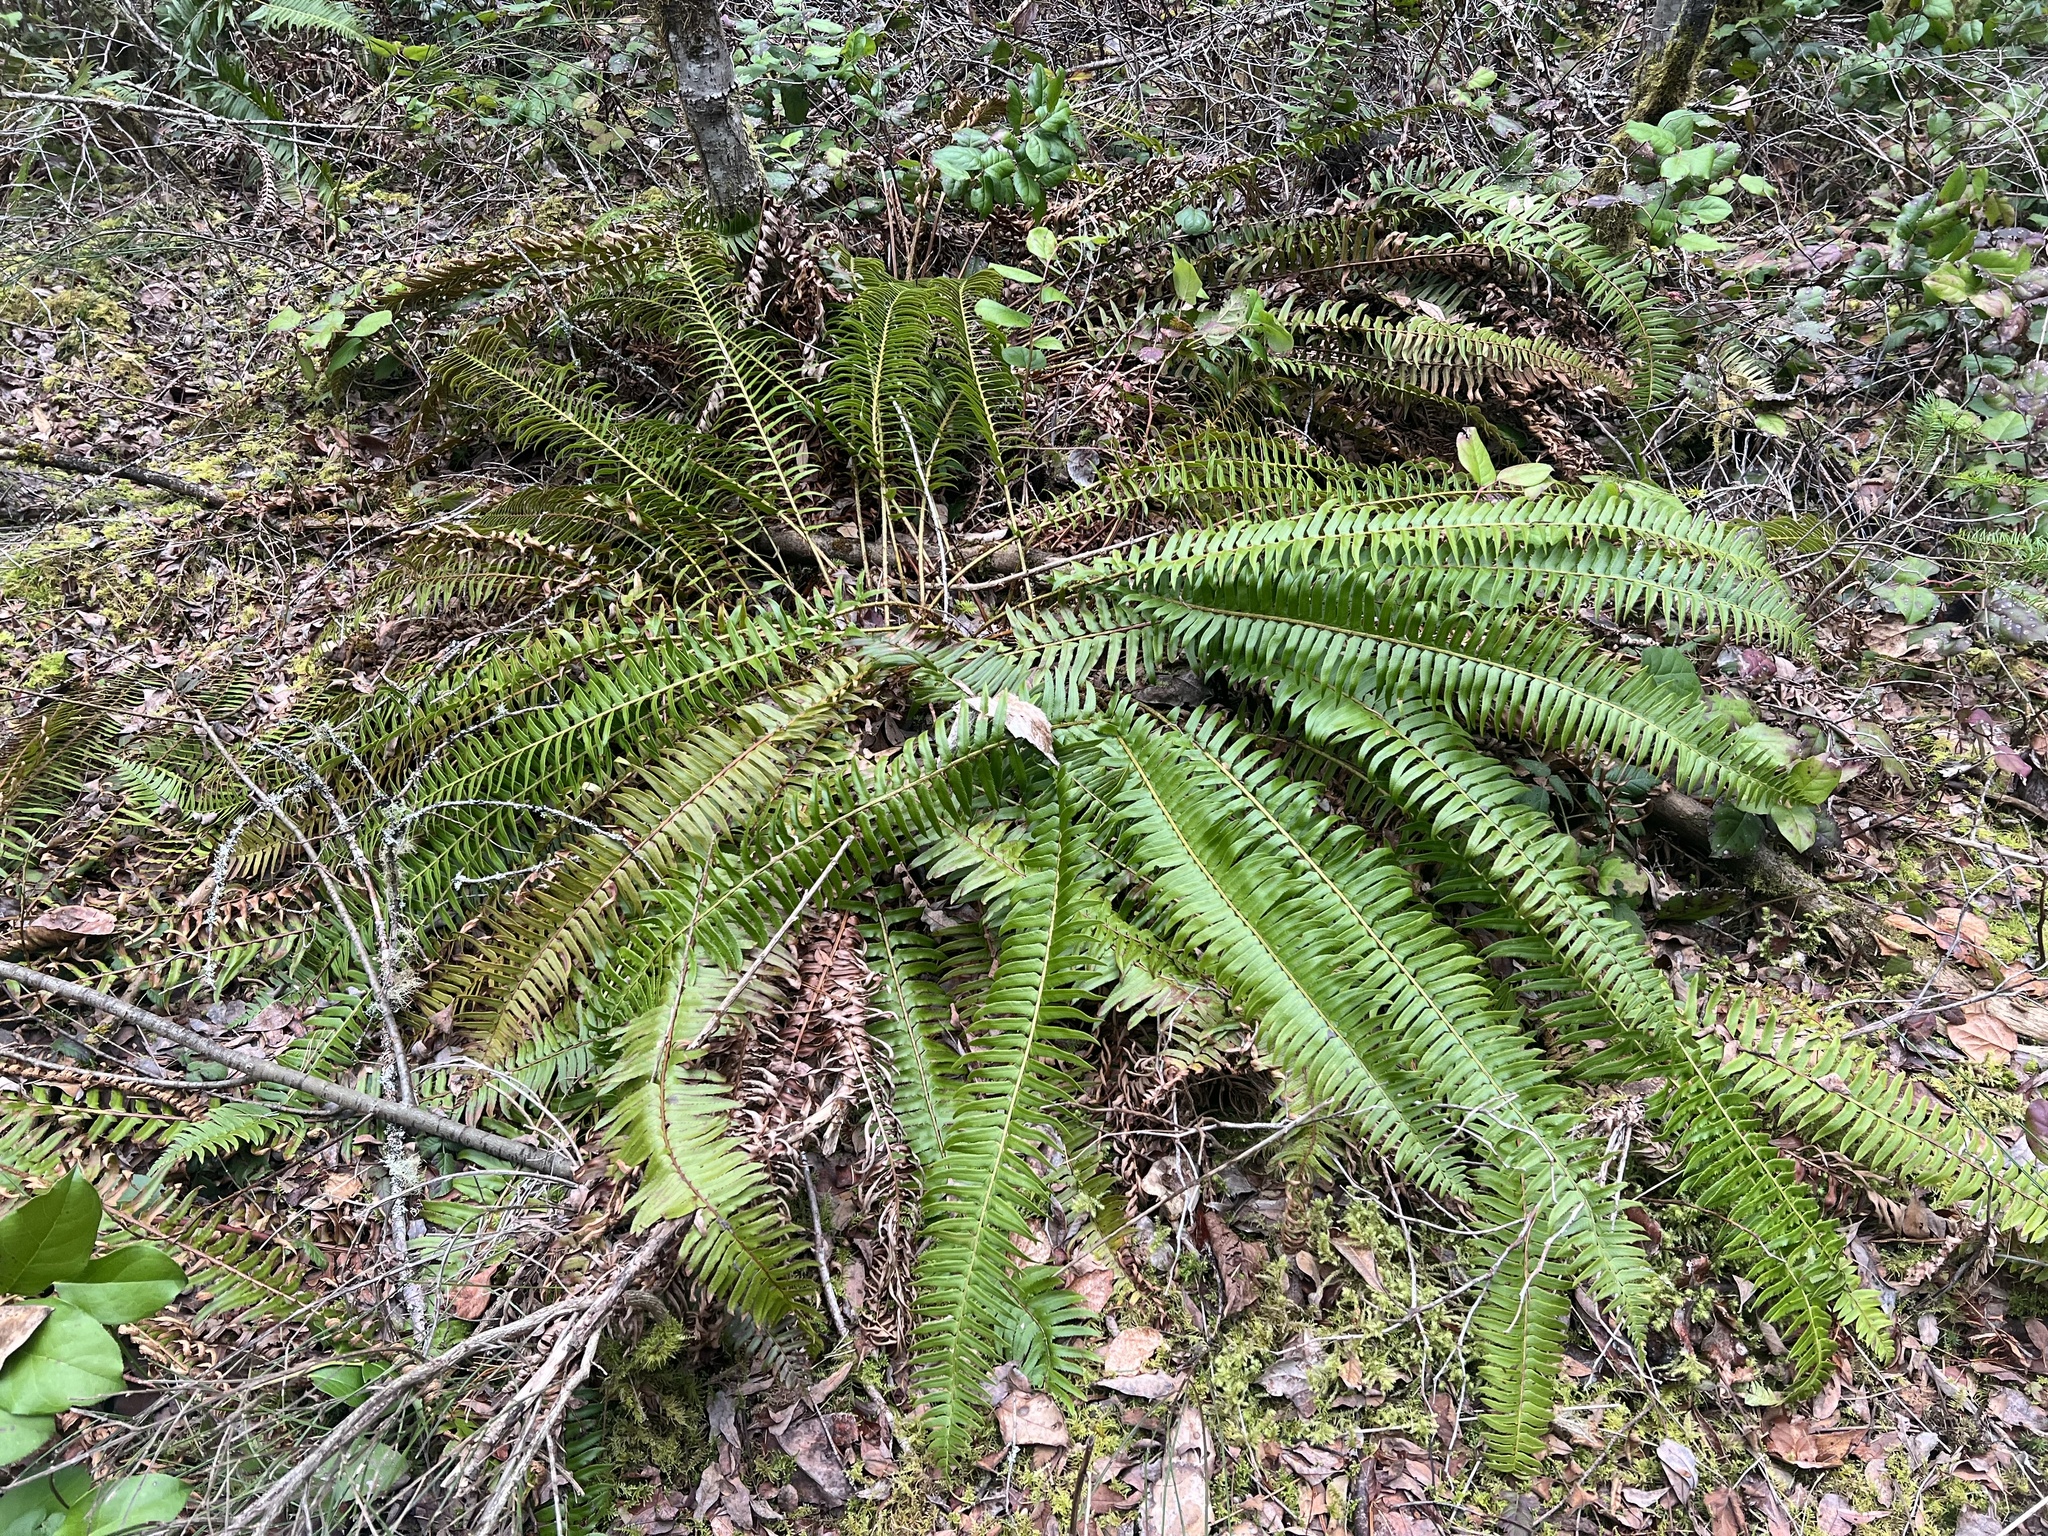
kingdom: Plantae
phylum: Tracheophyta
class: Polypodiopsida
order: Polypodiales
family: Dryopteridaceae
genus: Polystichum
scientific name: Polystichum munitum
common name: Western sword-fern
